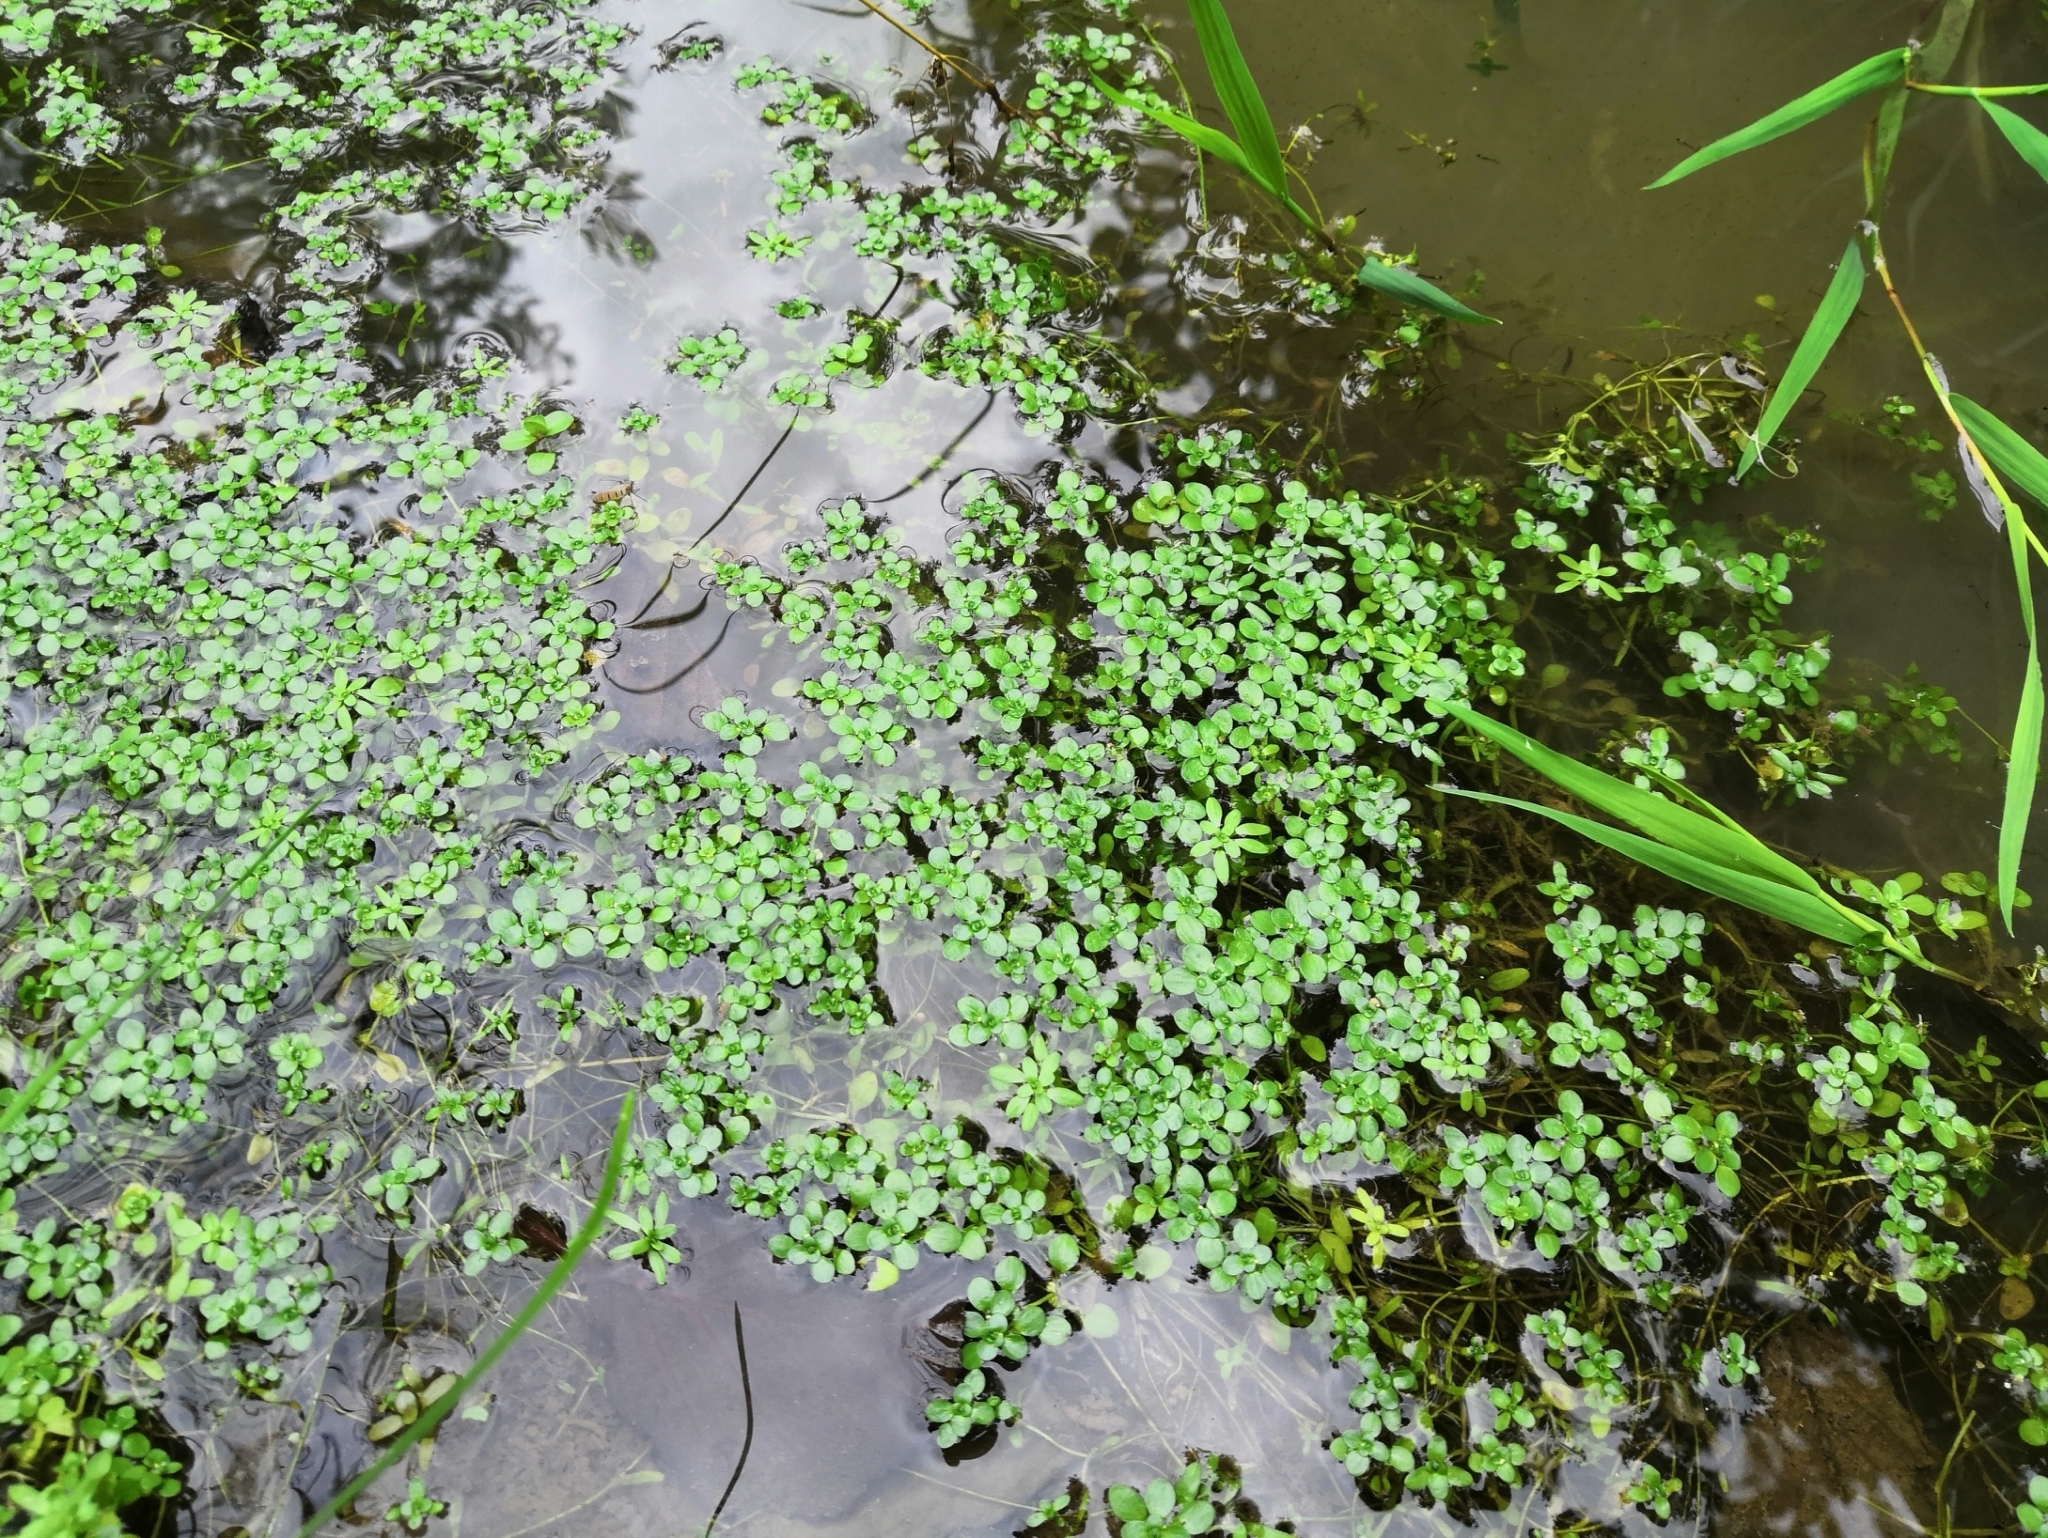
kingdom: Plantae
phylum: Tracheophyta
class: Magnoliopsida
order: Lamiales
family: Plantaginaceae
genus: Callitriche
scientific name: Callitriche stagnalis
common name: Common water-starwort
